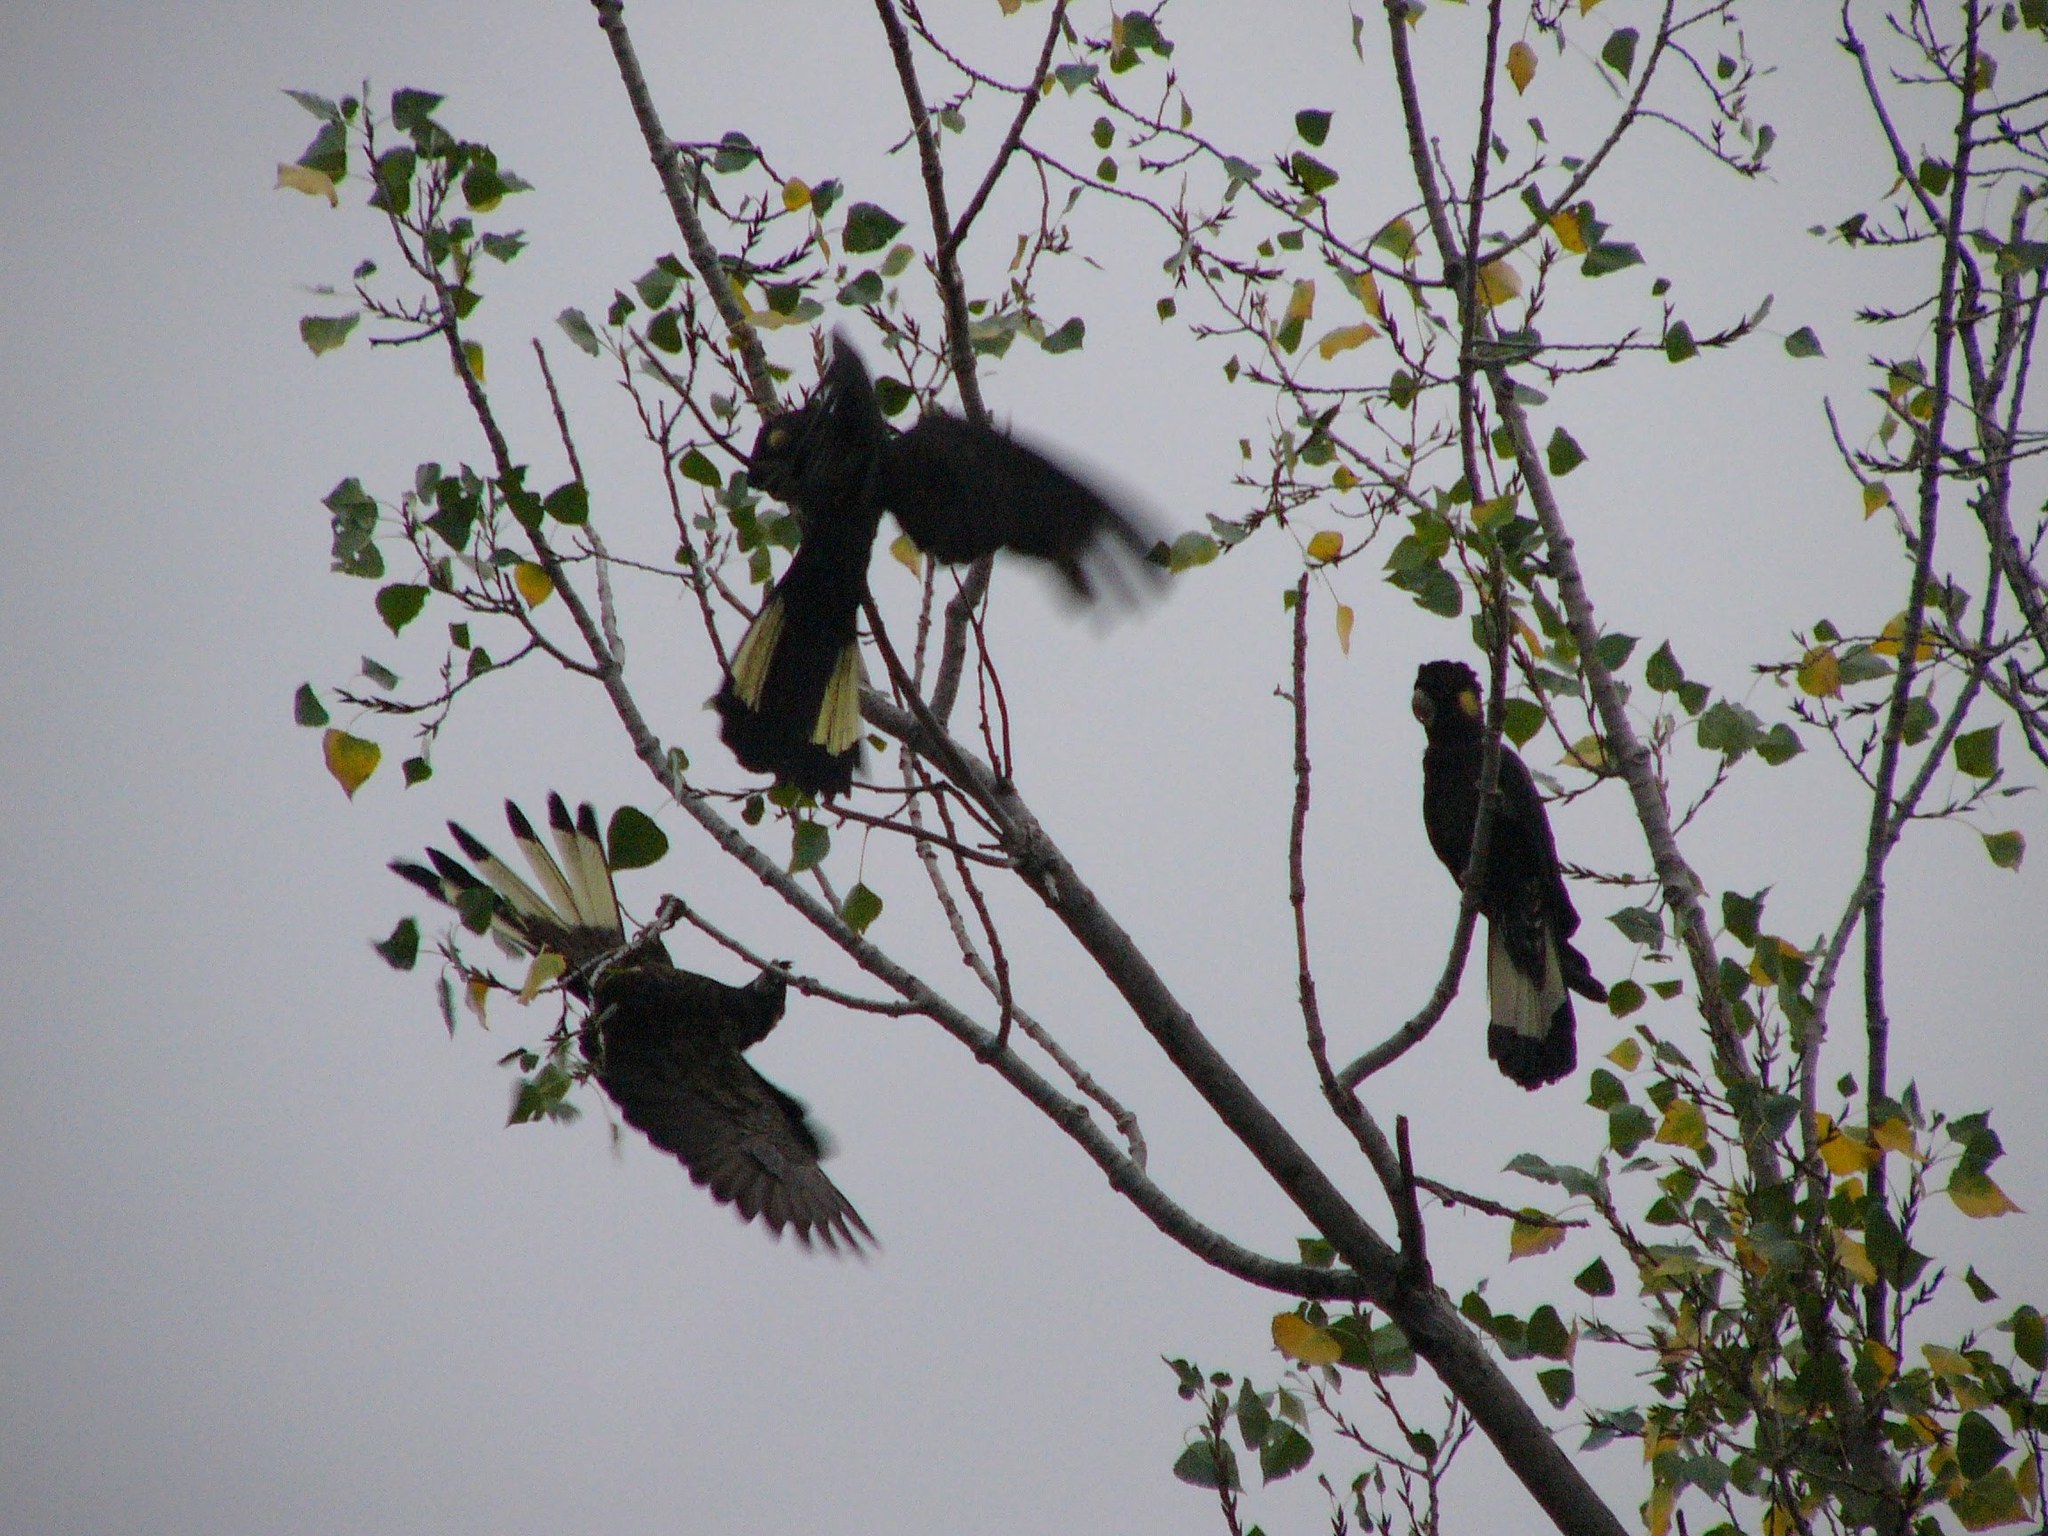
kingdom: Animalia
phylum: Chordata
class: Aves
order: Psittaciformes
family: Cacatuidae
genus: Zanda
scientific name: Zanda funerea
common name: Yellow-tailed black-cockatoo
